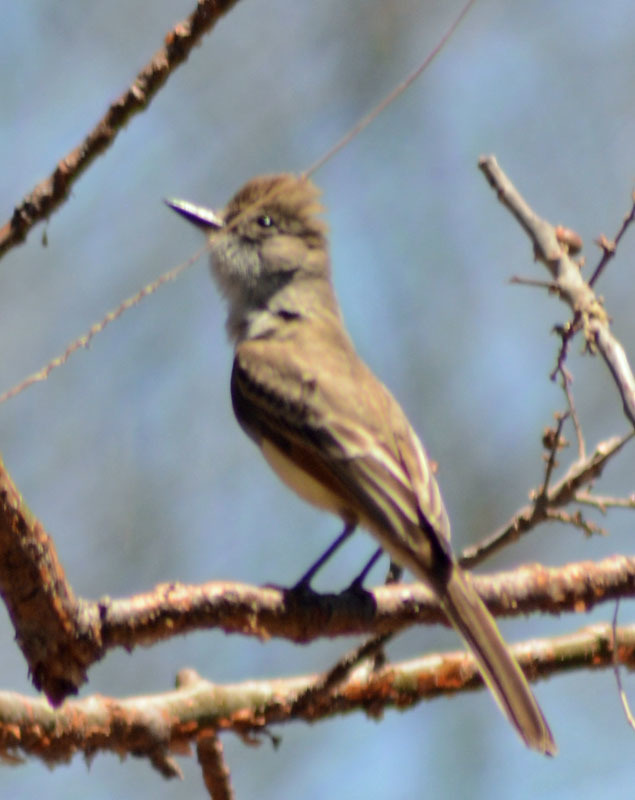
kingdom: Animalia
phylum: Chordata
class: Aves
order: Passeriformes
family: Tyrannidae
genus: Myiarchus
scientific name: Myiarchus tyrannulus
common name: Brown-crested flycatcher
